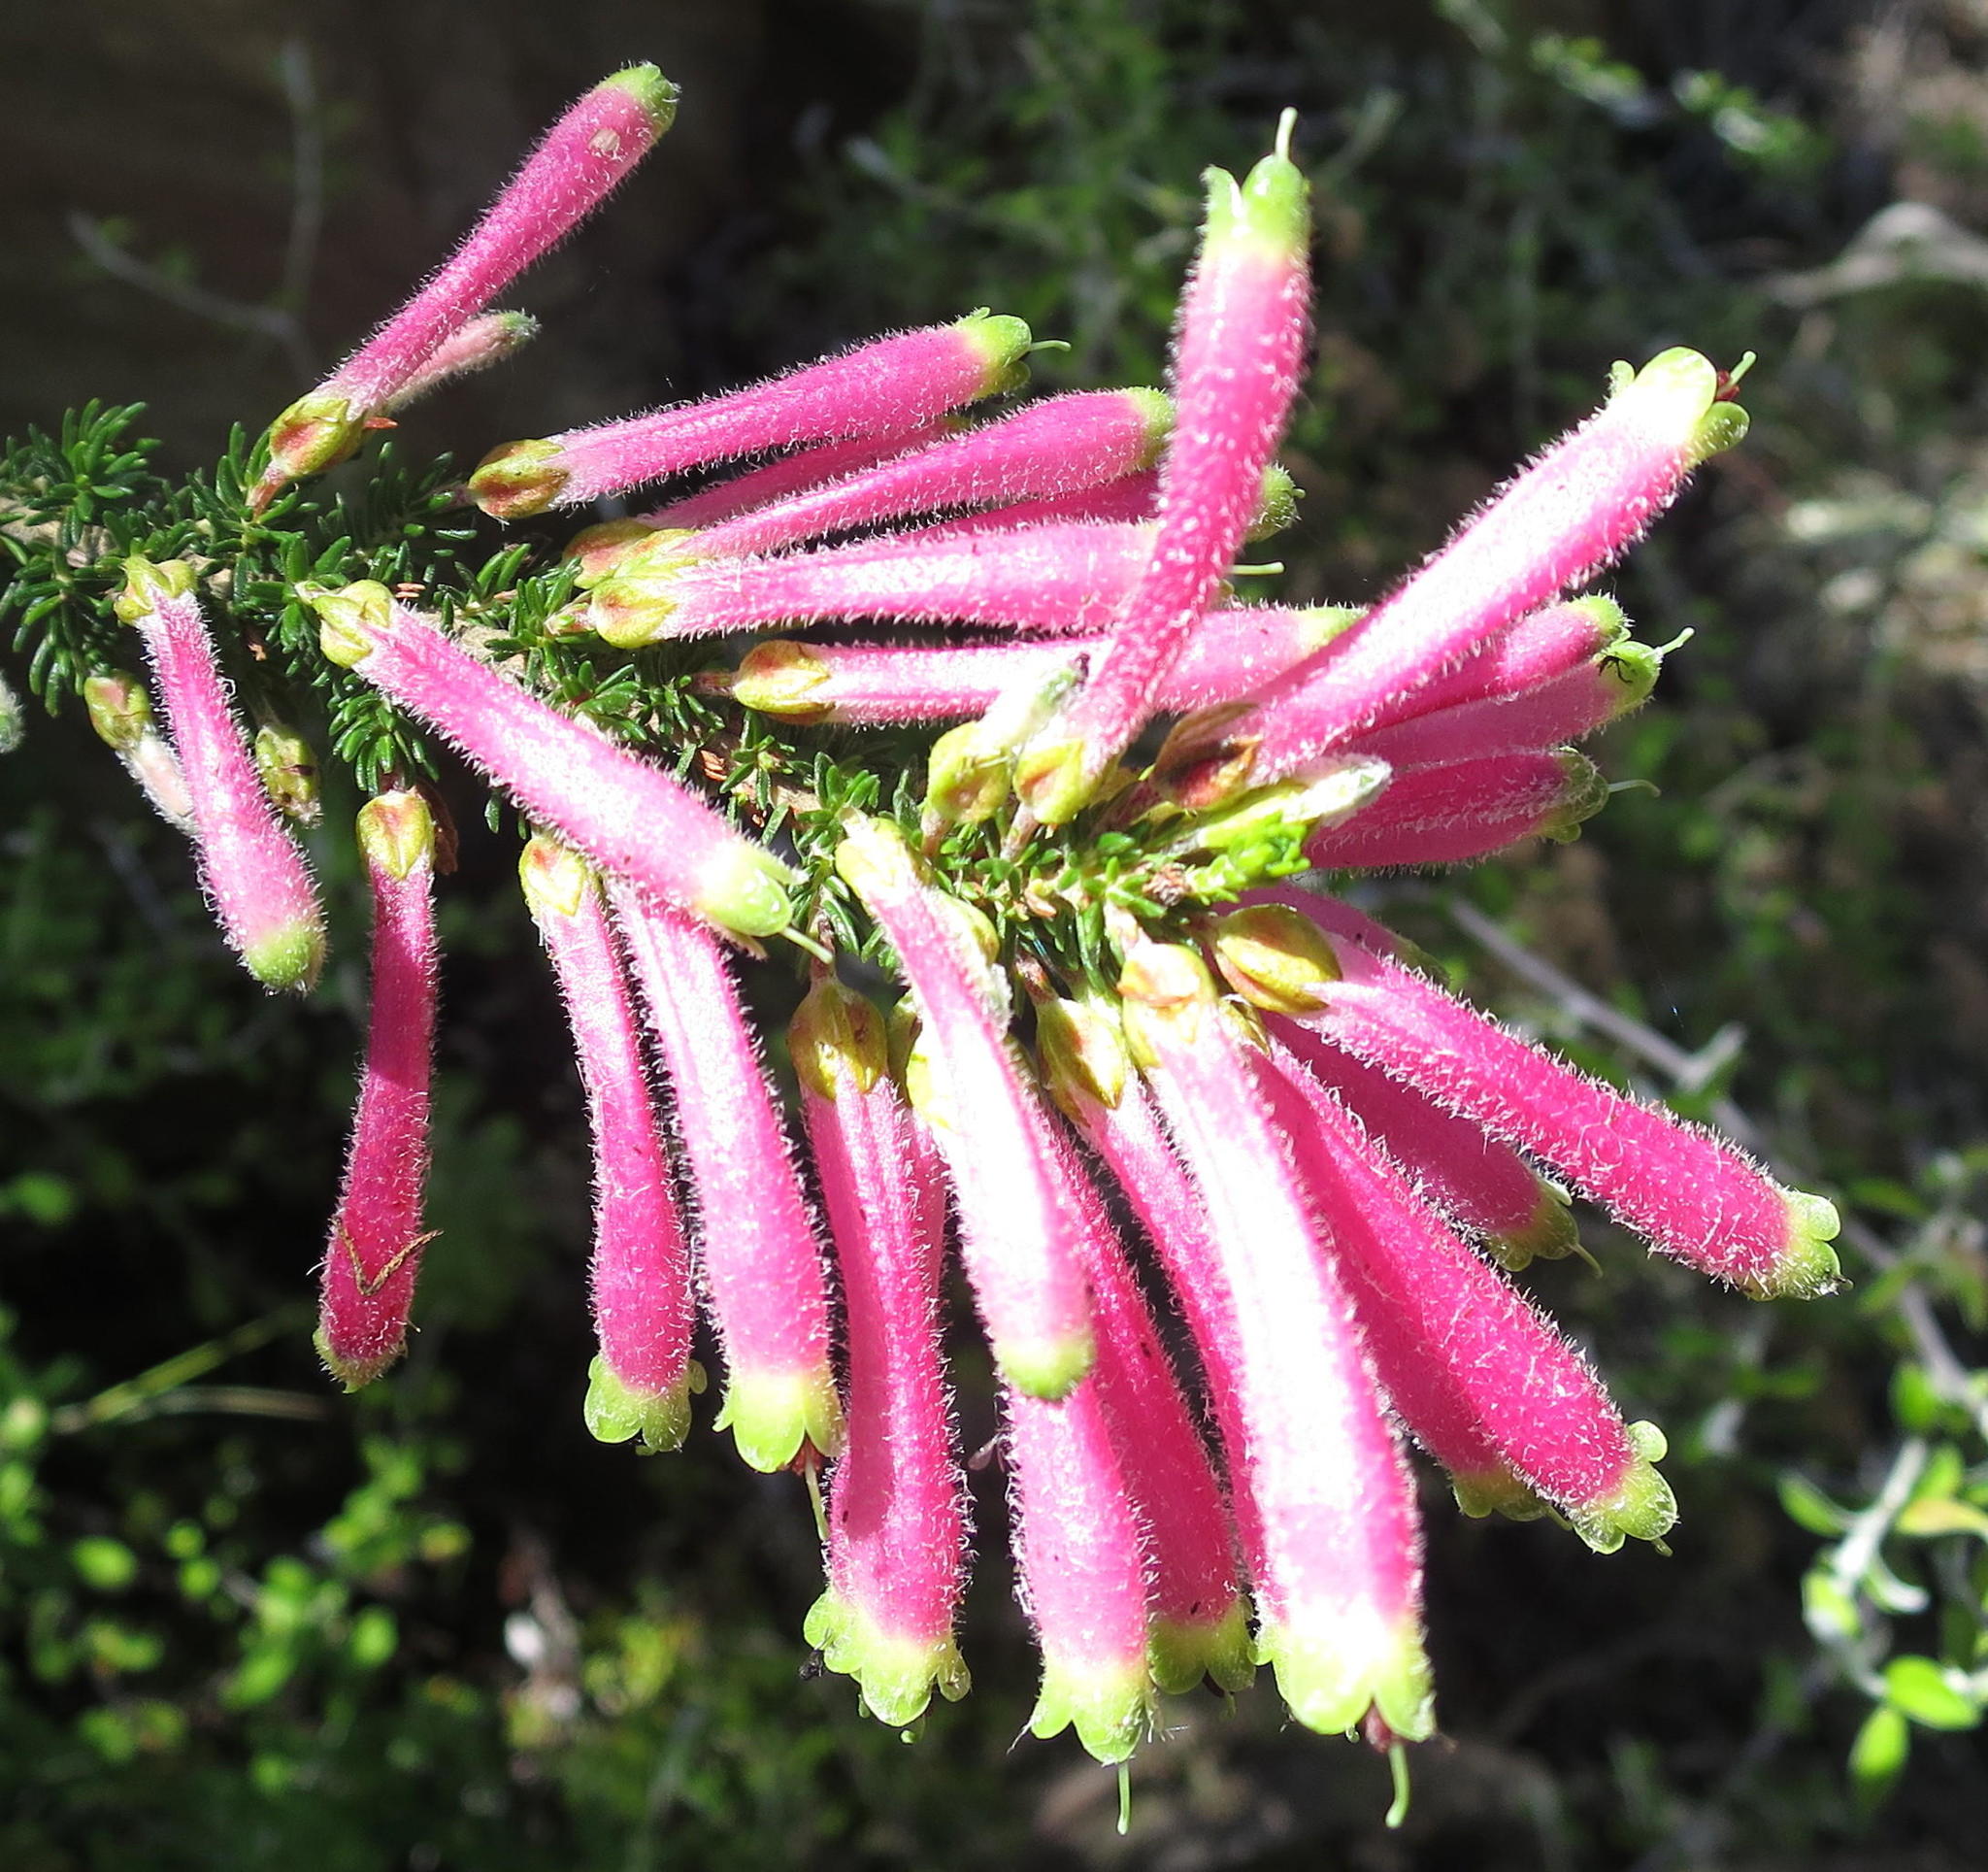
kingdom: Plantae
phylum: Tracheophyta
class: Magnoliopsida
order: Ericales
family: Ericaceae
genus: Erica
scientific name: Erica densifolia
